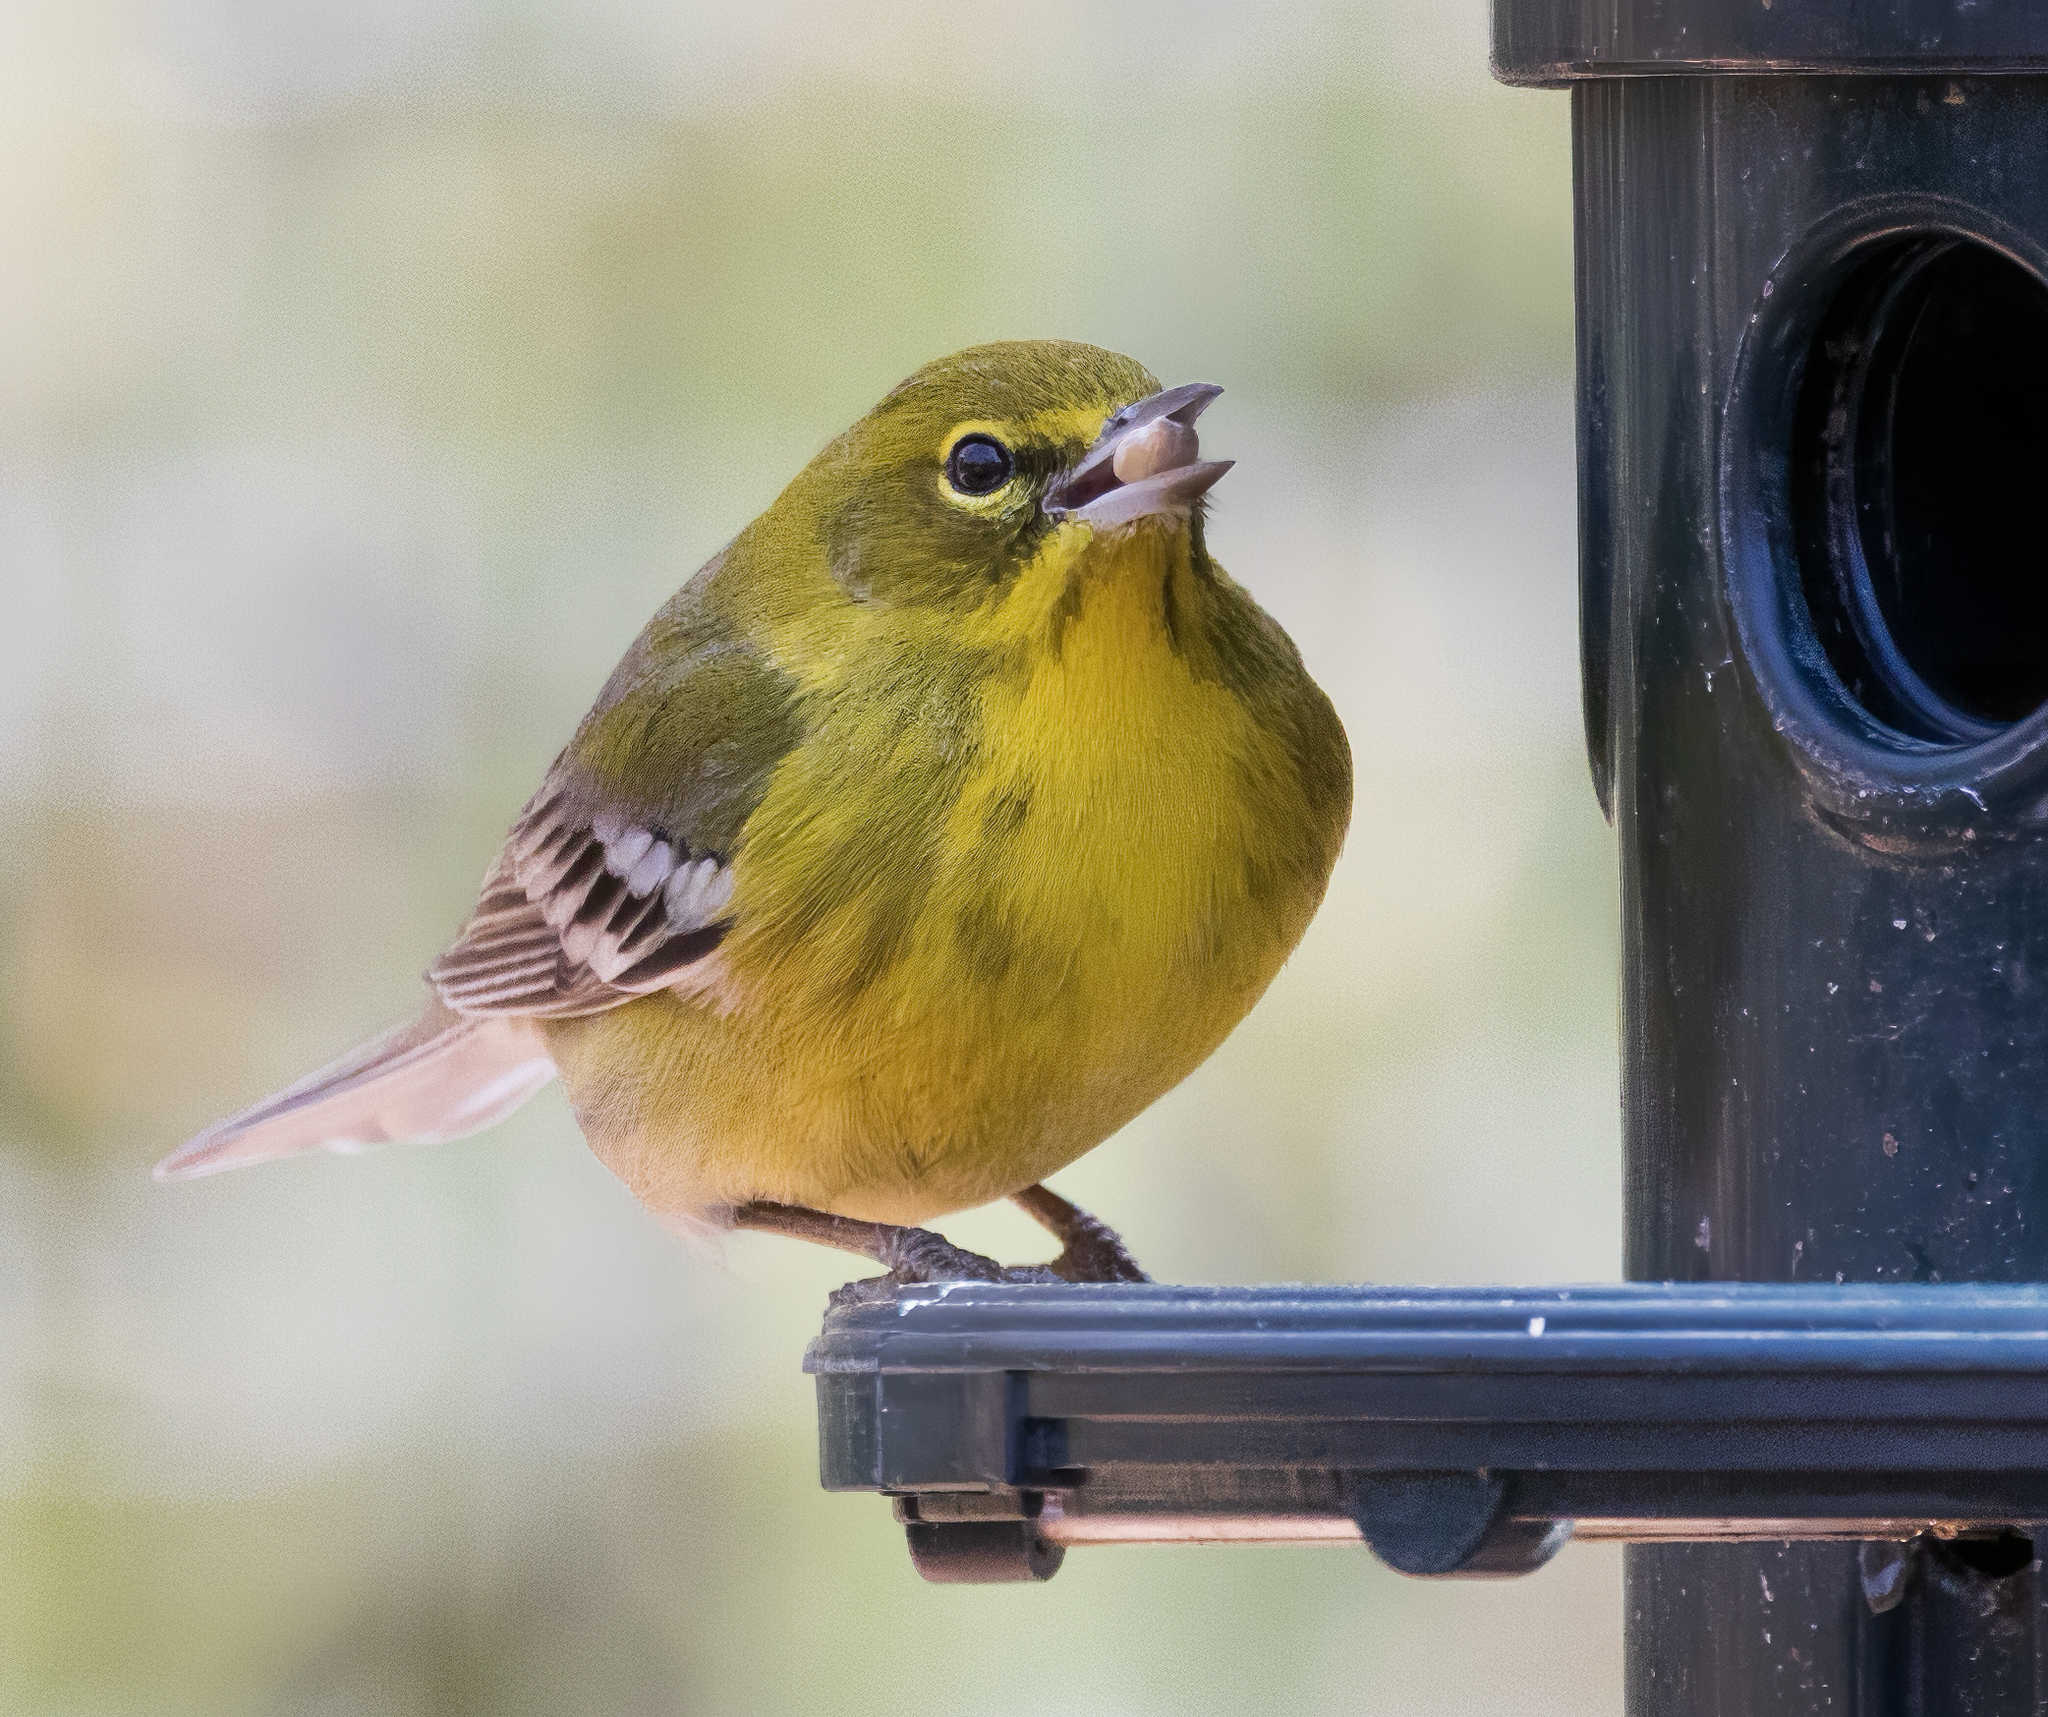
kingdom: Animalia
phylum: Chordata
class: Aves
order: Passeriformes
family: Parulidae
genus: Setophaga
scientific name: Setophaga pinus
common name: Pine warbler
